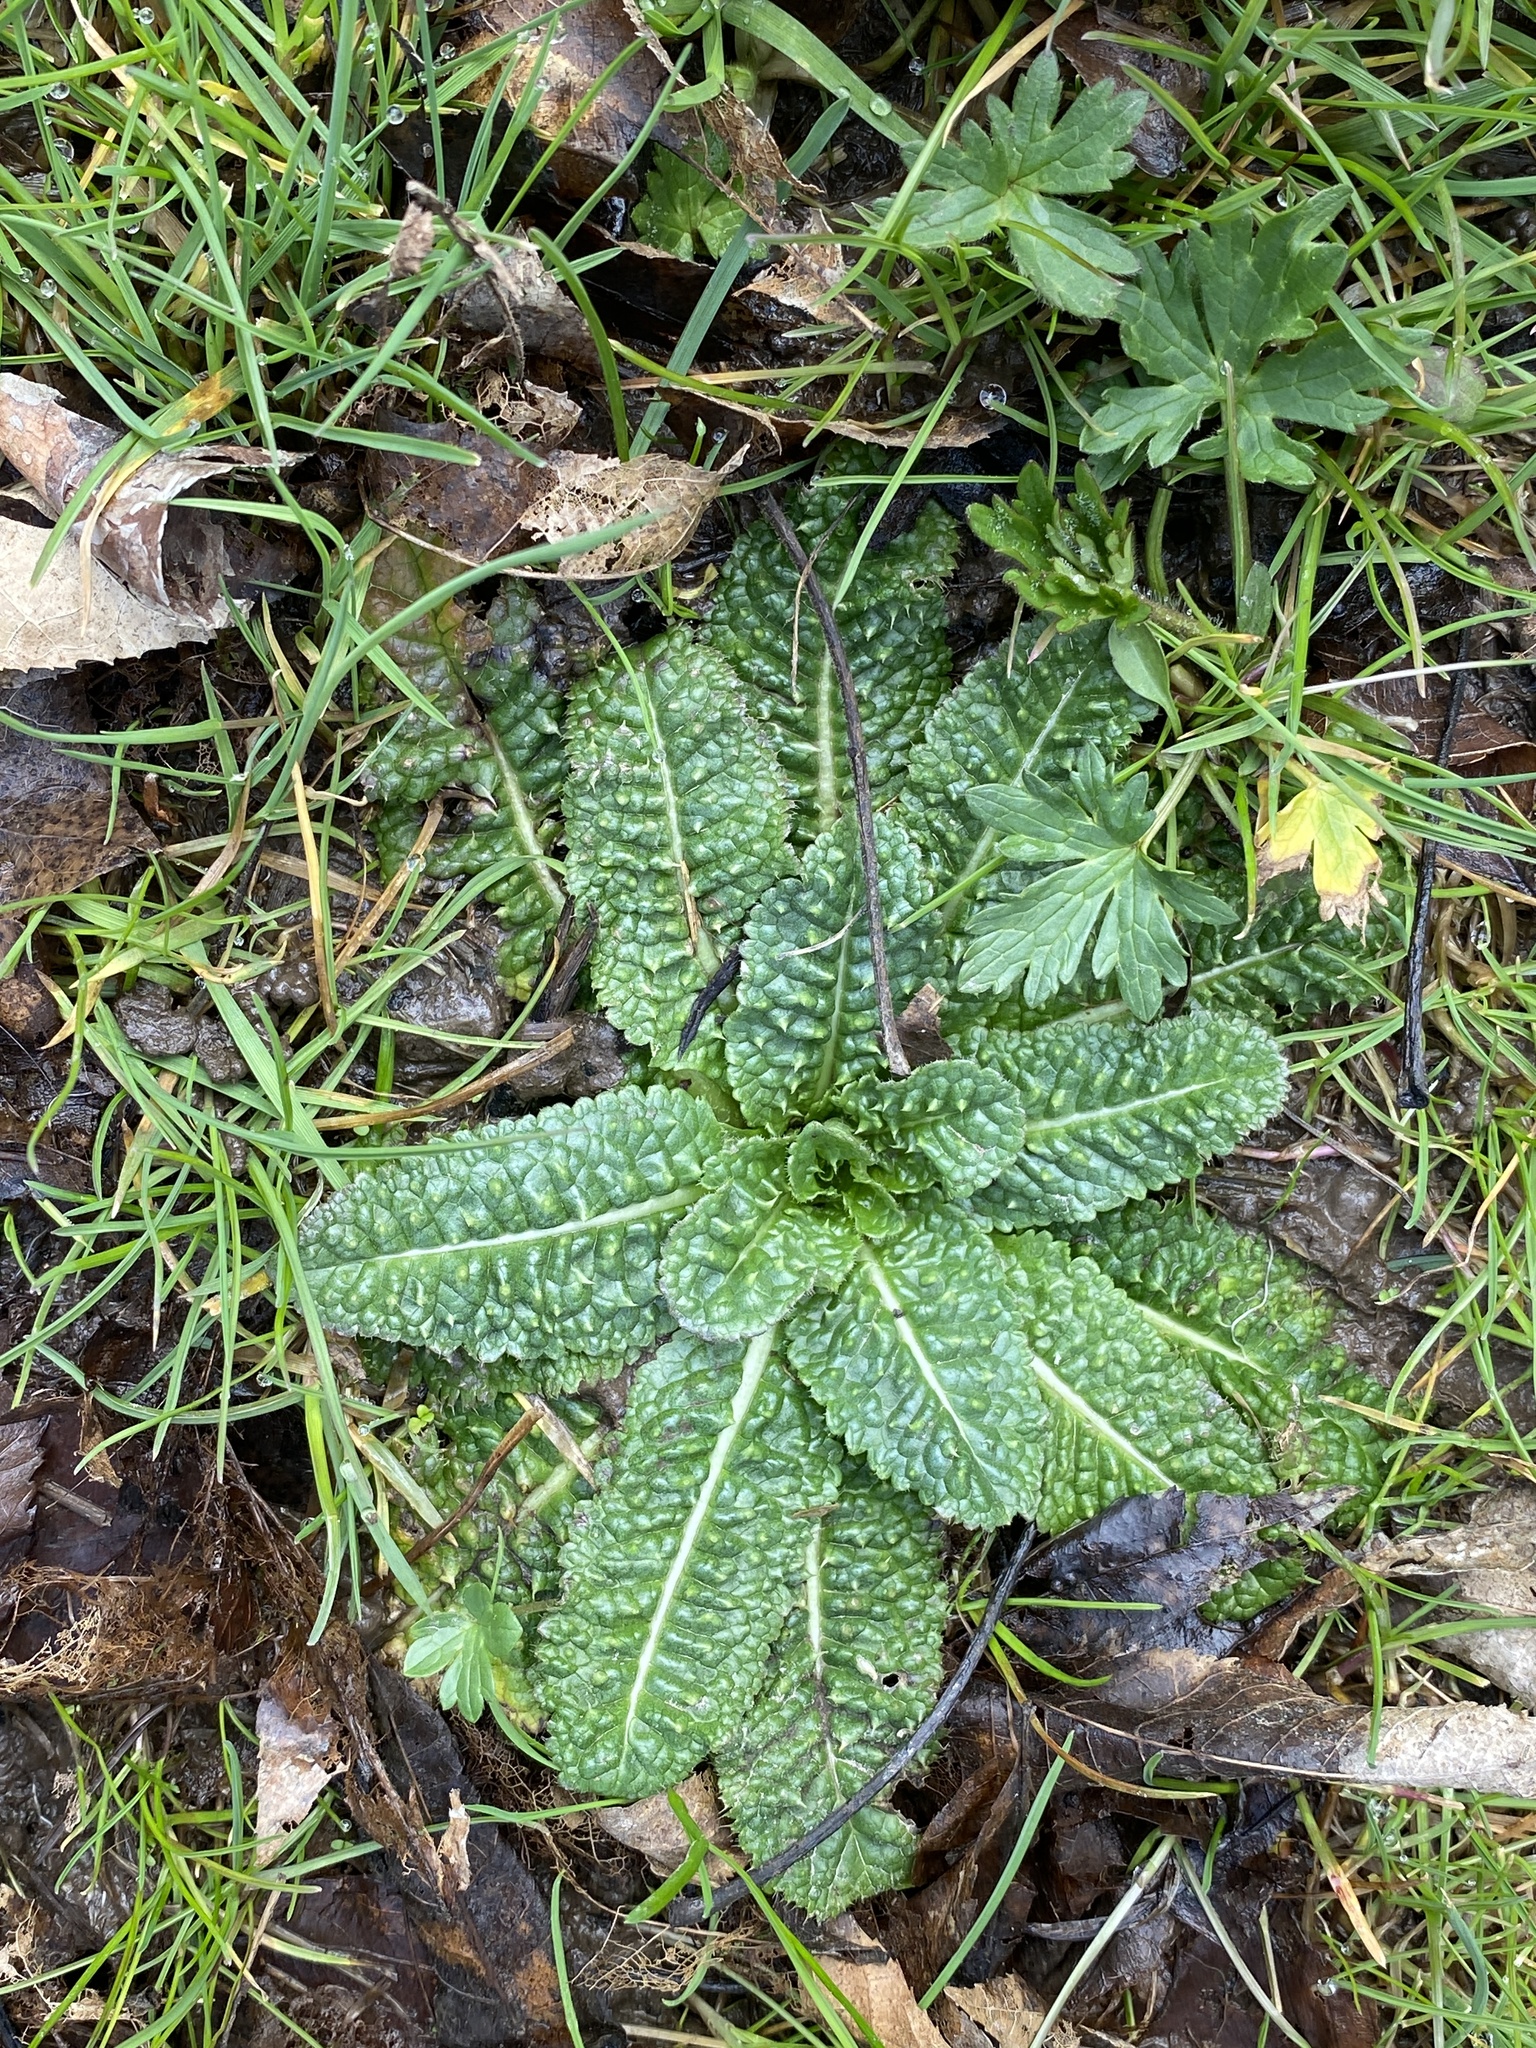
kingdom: Plantae
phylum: Tracheophyta
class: Magnoliopsida
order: Dipsacales
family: Caprifoliaceae
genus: Dipsacus
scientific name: Dipsacus fullonum
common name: Teasel
